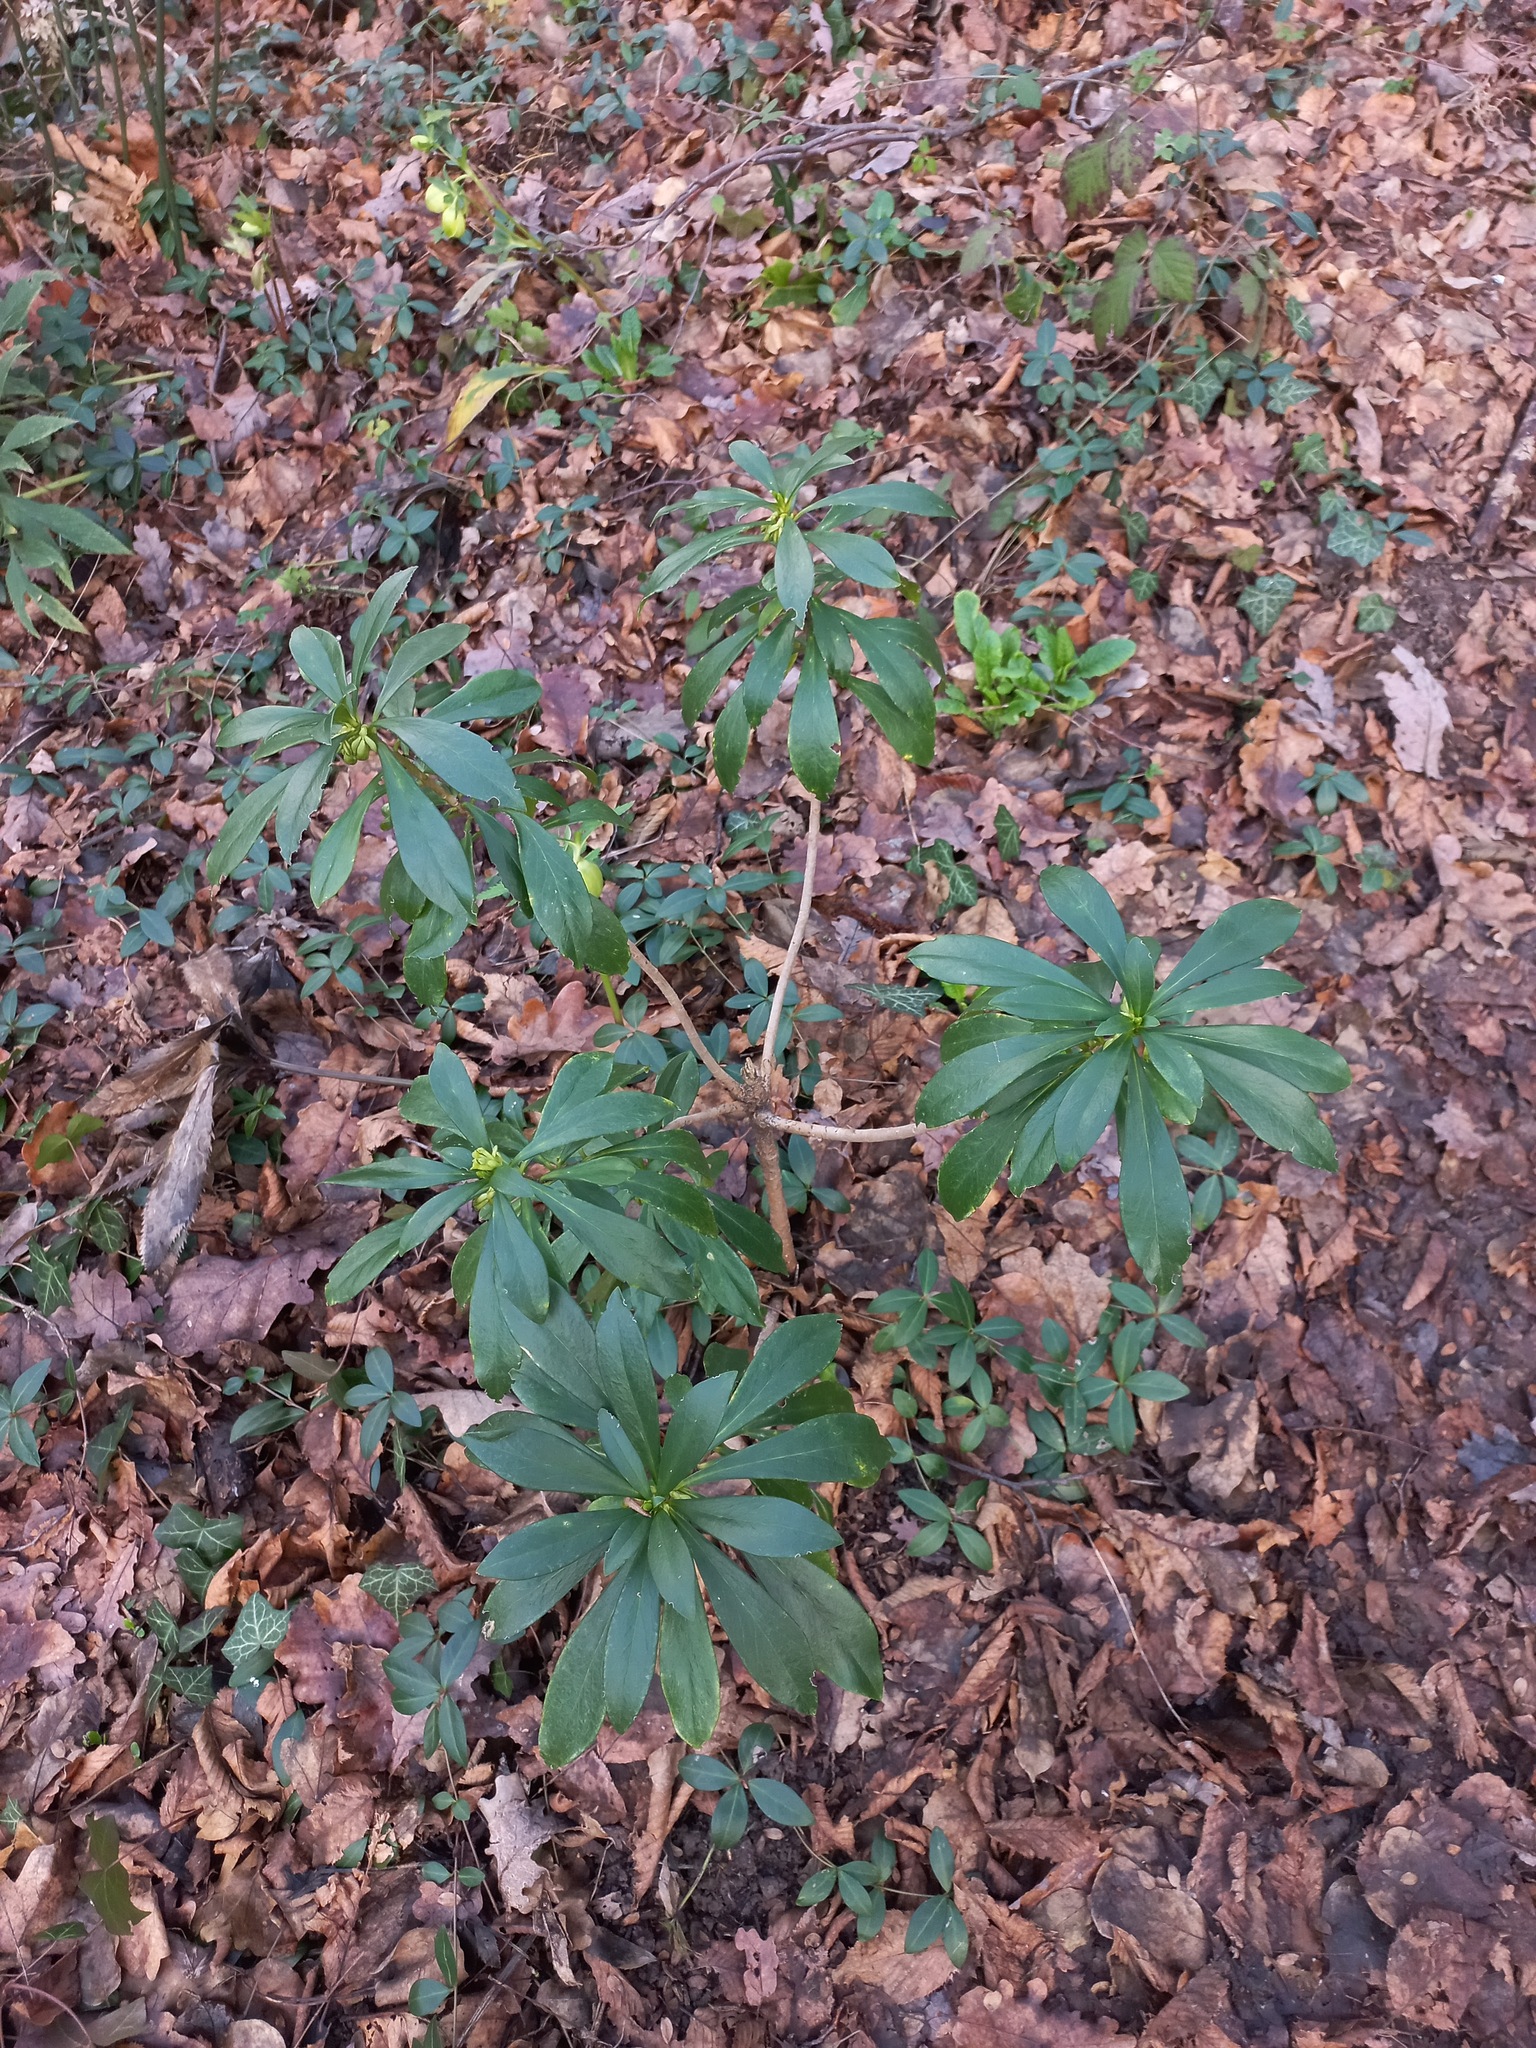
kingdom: Plantae
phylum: Tracheophyta
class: Magnoliopsida
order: Malvales
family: Thymelaeaceae
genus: Daphne
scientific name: Daphne laureola
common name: Spurge-laurel
